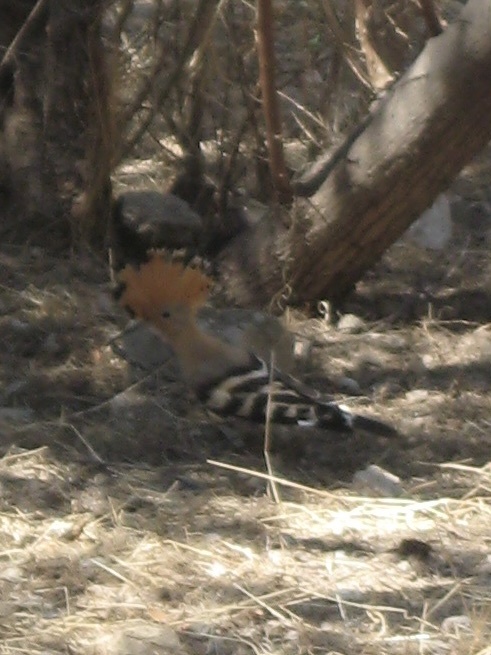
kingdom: Animalia
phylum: Chordata
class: Aves
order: Bucerotiformes
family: Upupidae
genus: Upupa
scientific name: Upupa epops
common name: Eurasian hoopoe
